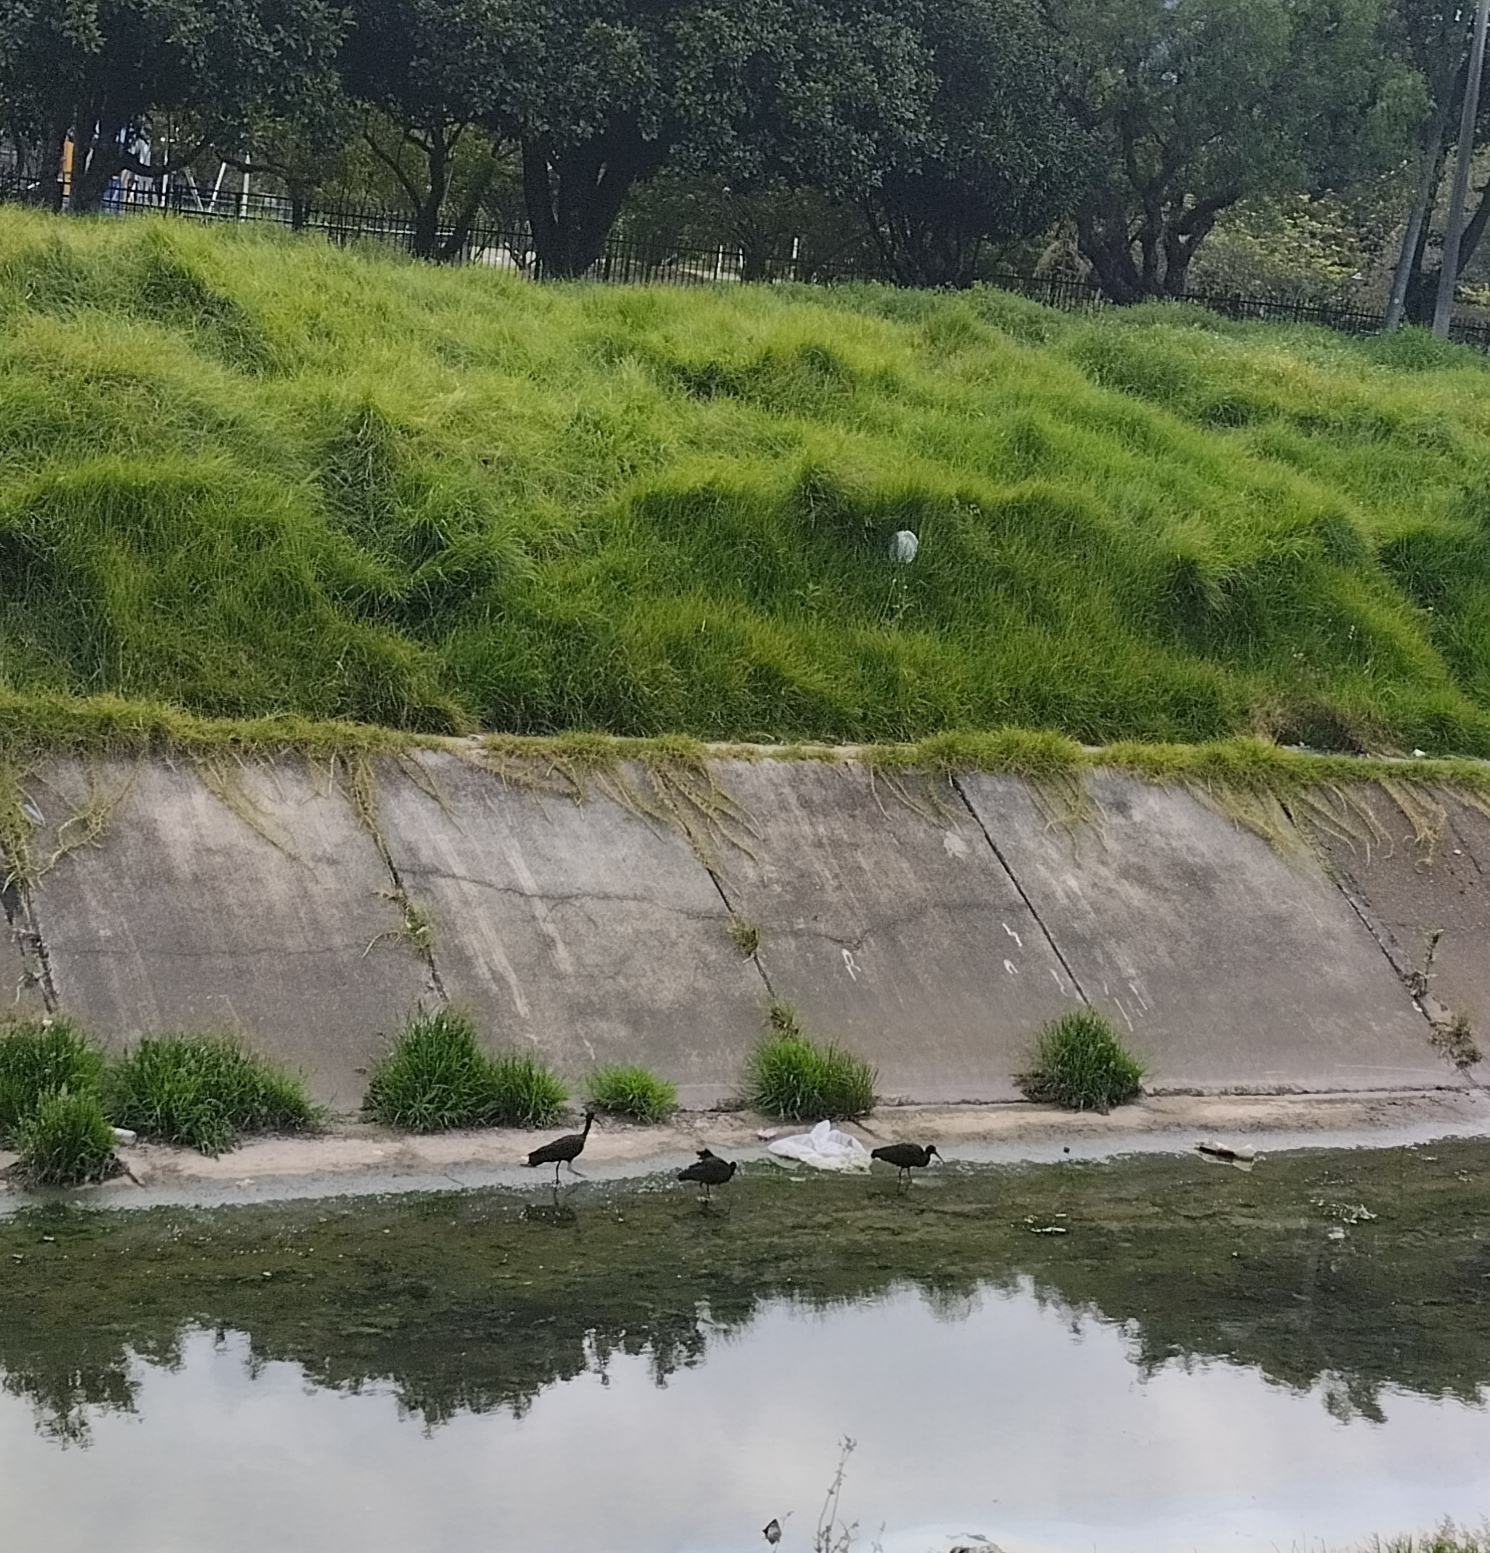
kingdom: Animalia
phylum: Chordata
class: Aves
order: Pelecaniformes
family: Threskiornithidae
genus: Phimosus
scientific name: Phimosus infuscatus
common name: Bare-faced ibis
